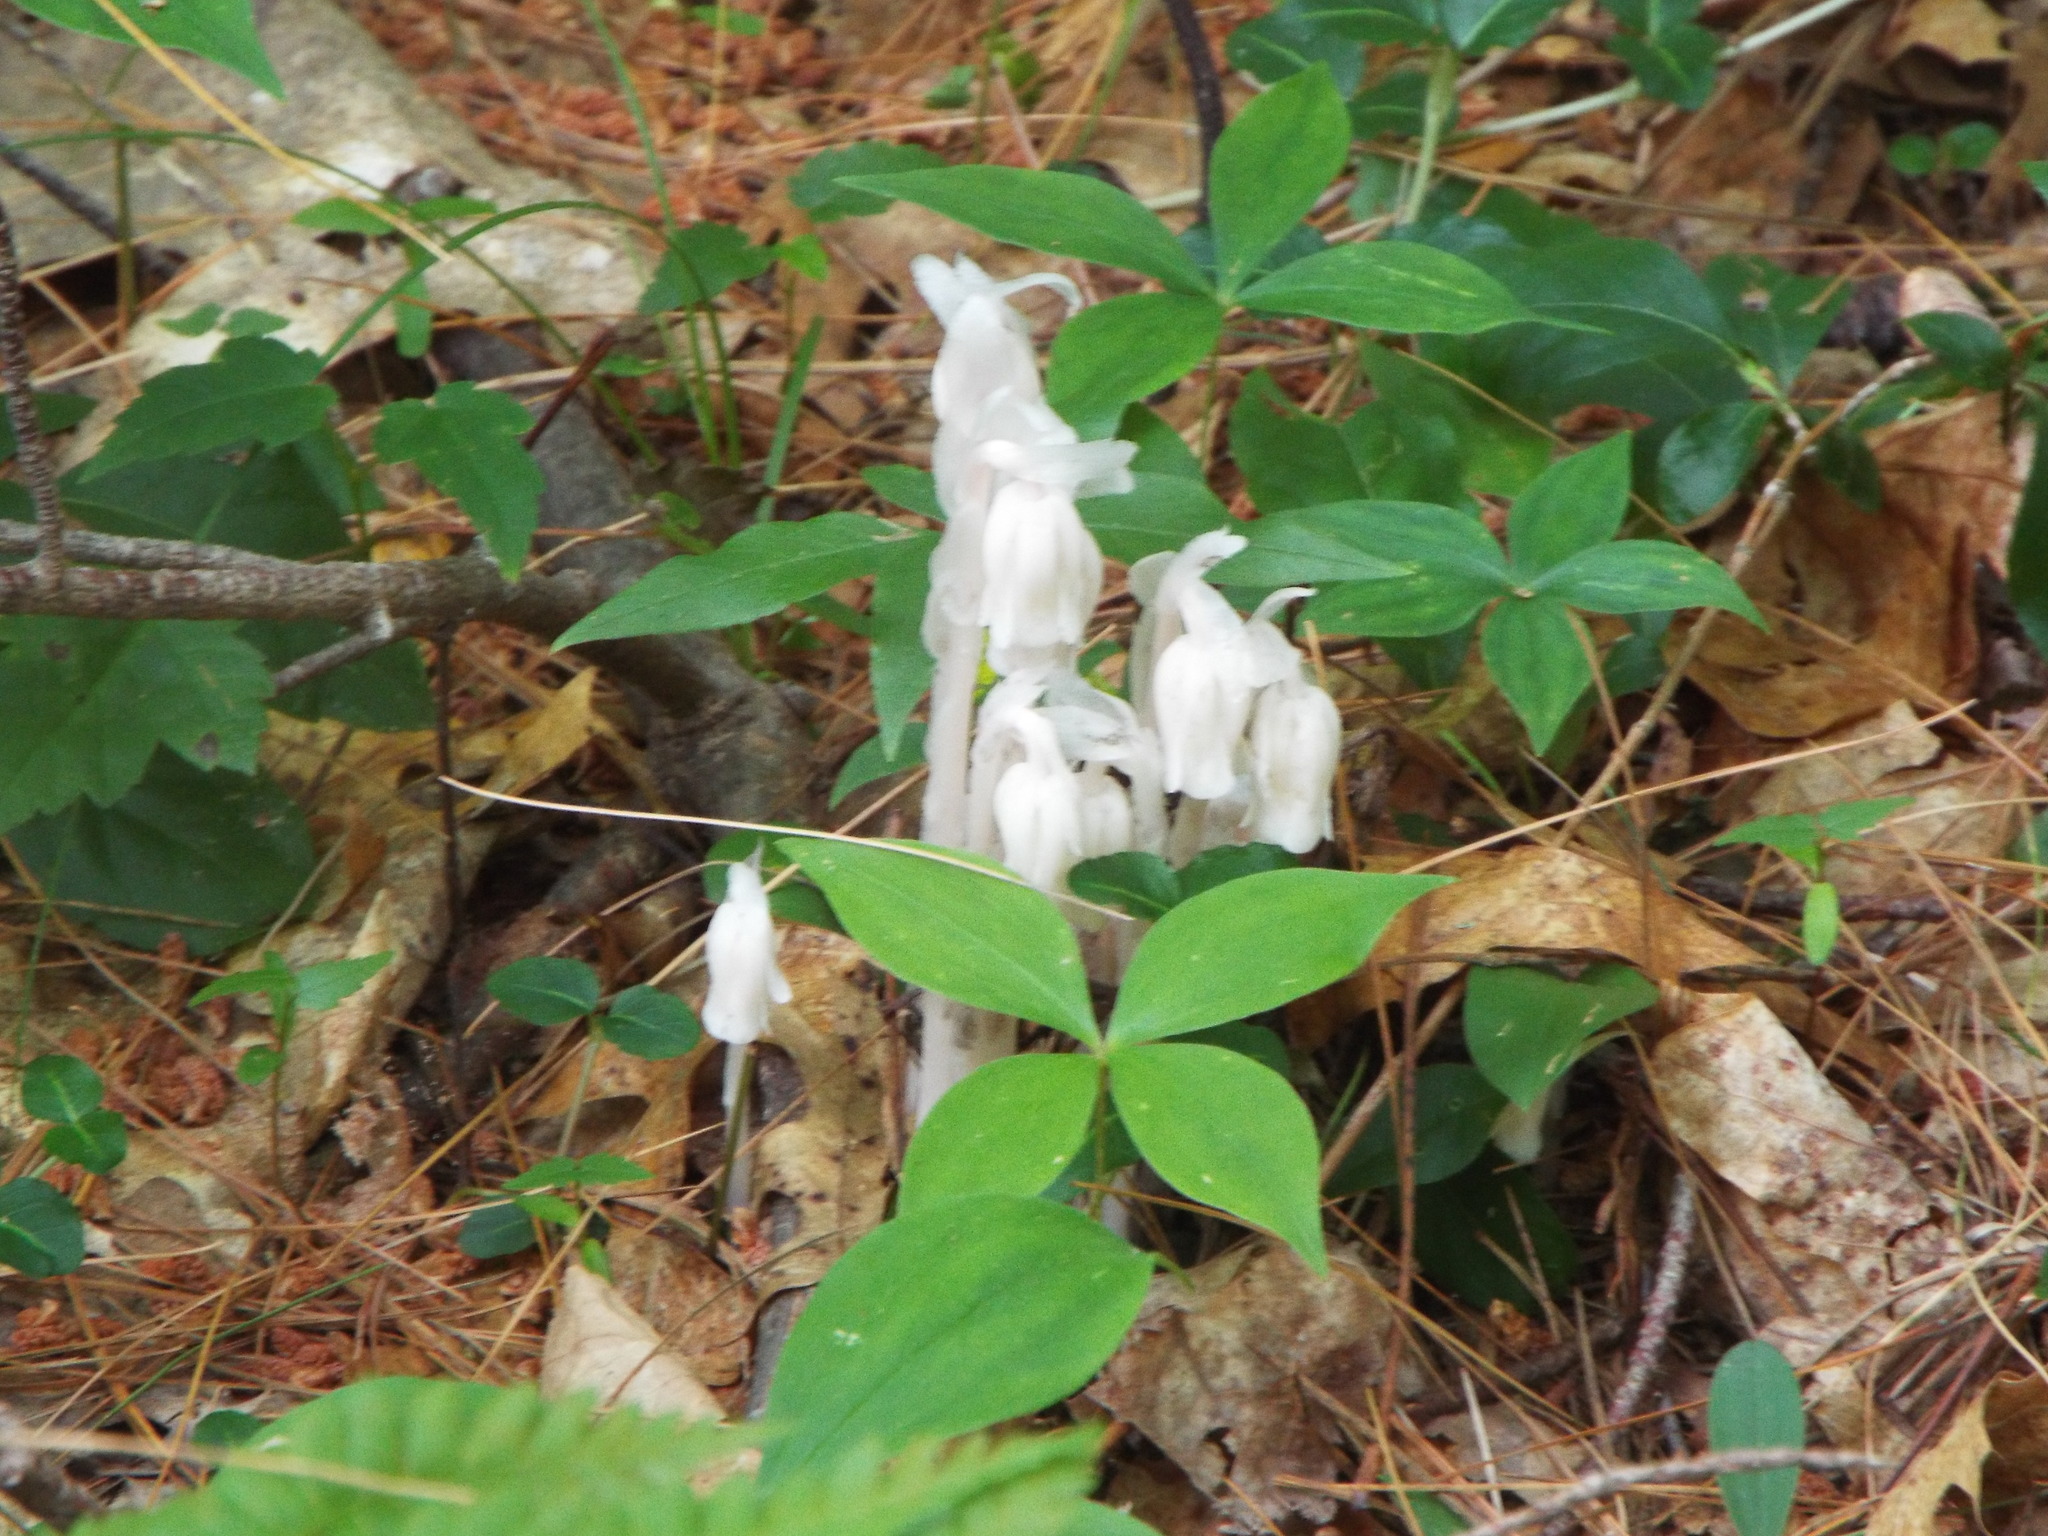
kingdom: Plantae
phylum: Tracheophyta
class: Magnoliopsida
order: Ericales
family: Ericaceae
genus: Monotropa
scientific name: Monotropa uniflora
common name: Convulsion root
